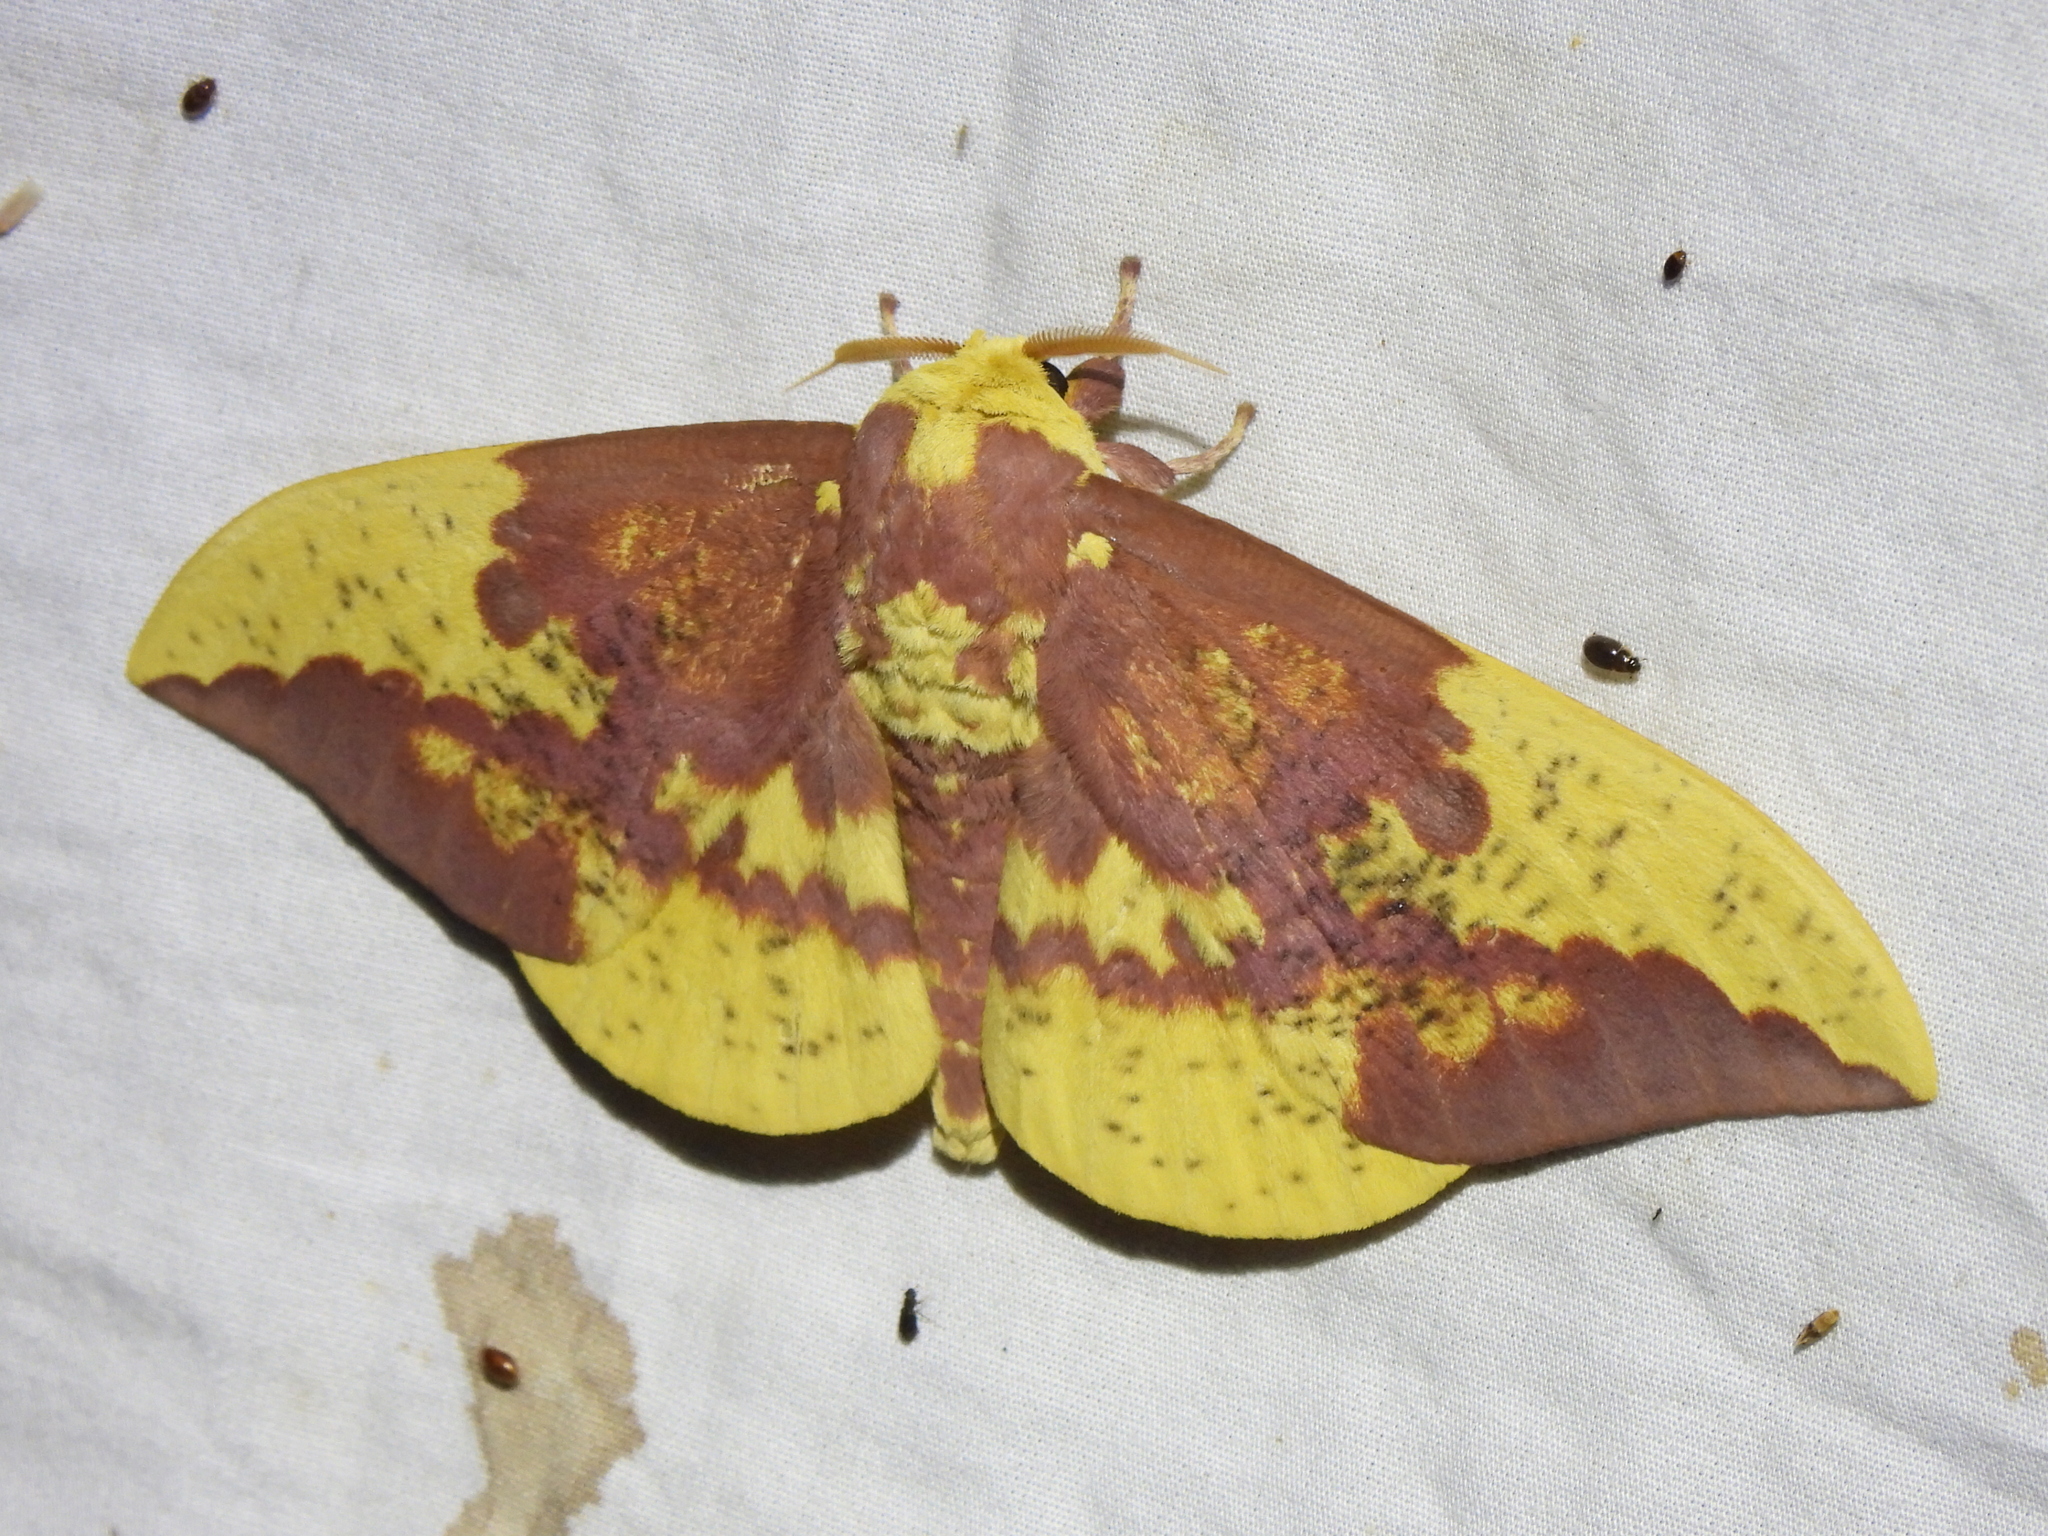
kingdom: Animalia
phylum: Arthropoda
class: Insecta
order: Lepidoptera
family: Saturniidae
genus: Eacles
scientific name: Eacles imperialis
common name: Imperial moth
